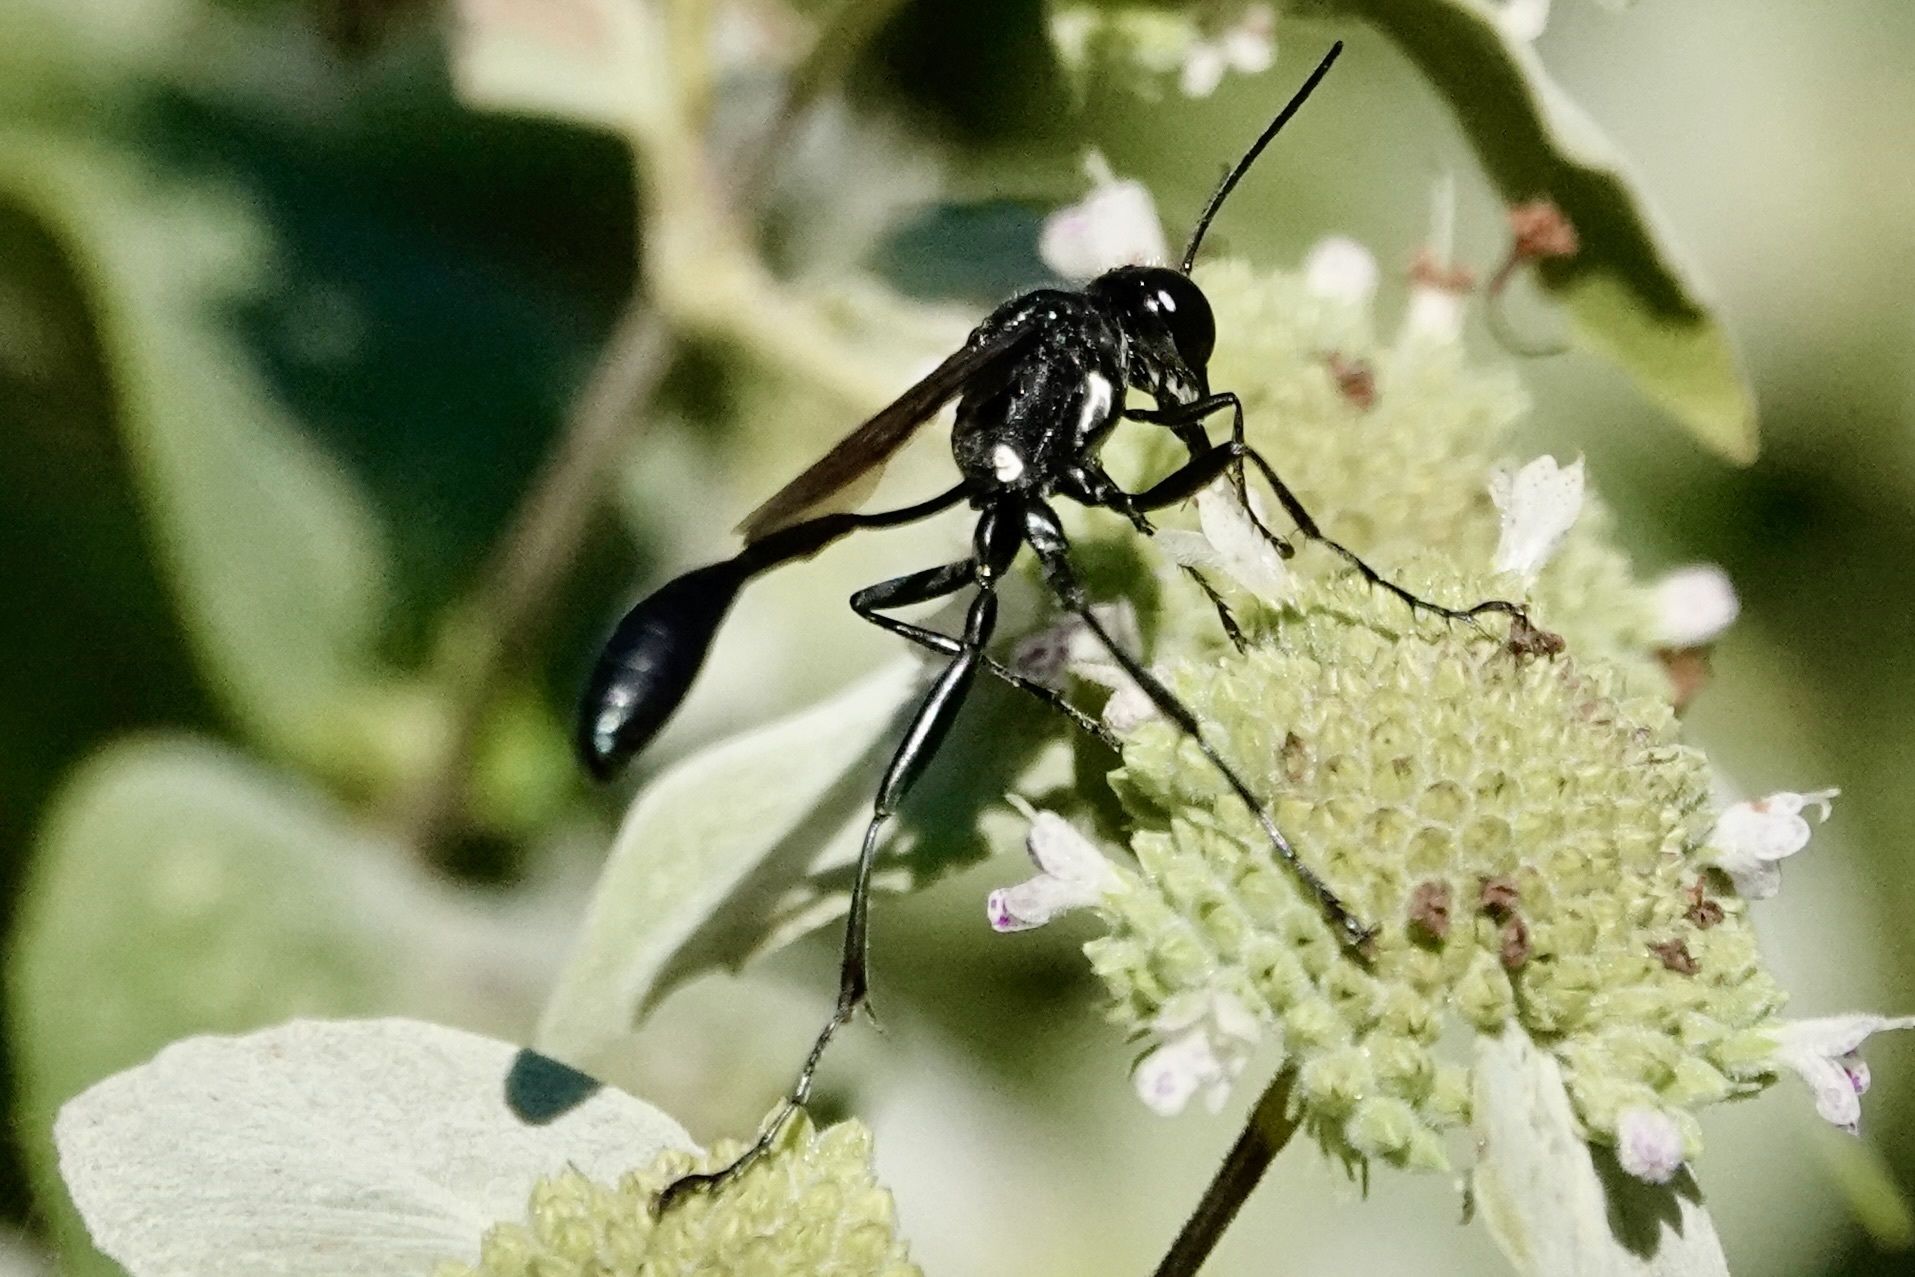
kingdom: Animalia
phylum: Arthropoda
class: Insecta
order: Hymenoptera
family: Sphecidae
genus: Eremnophila
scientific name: Eremnophila aureonotata
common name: Gold-marked thread-waisted wasp
